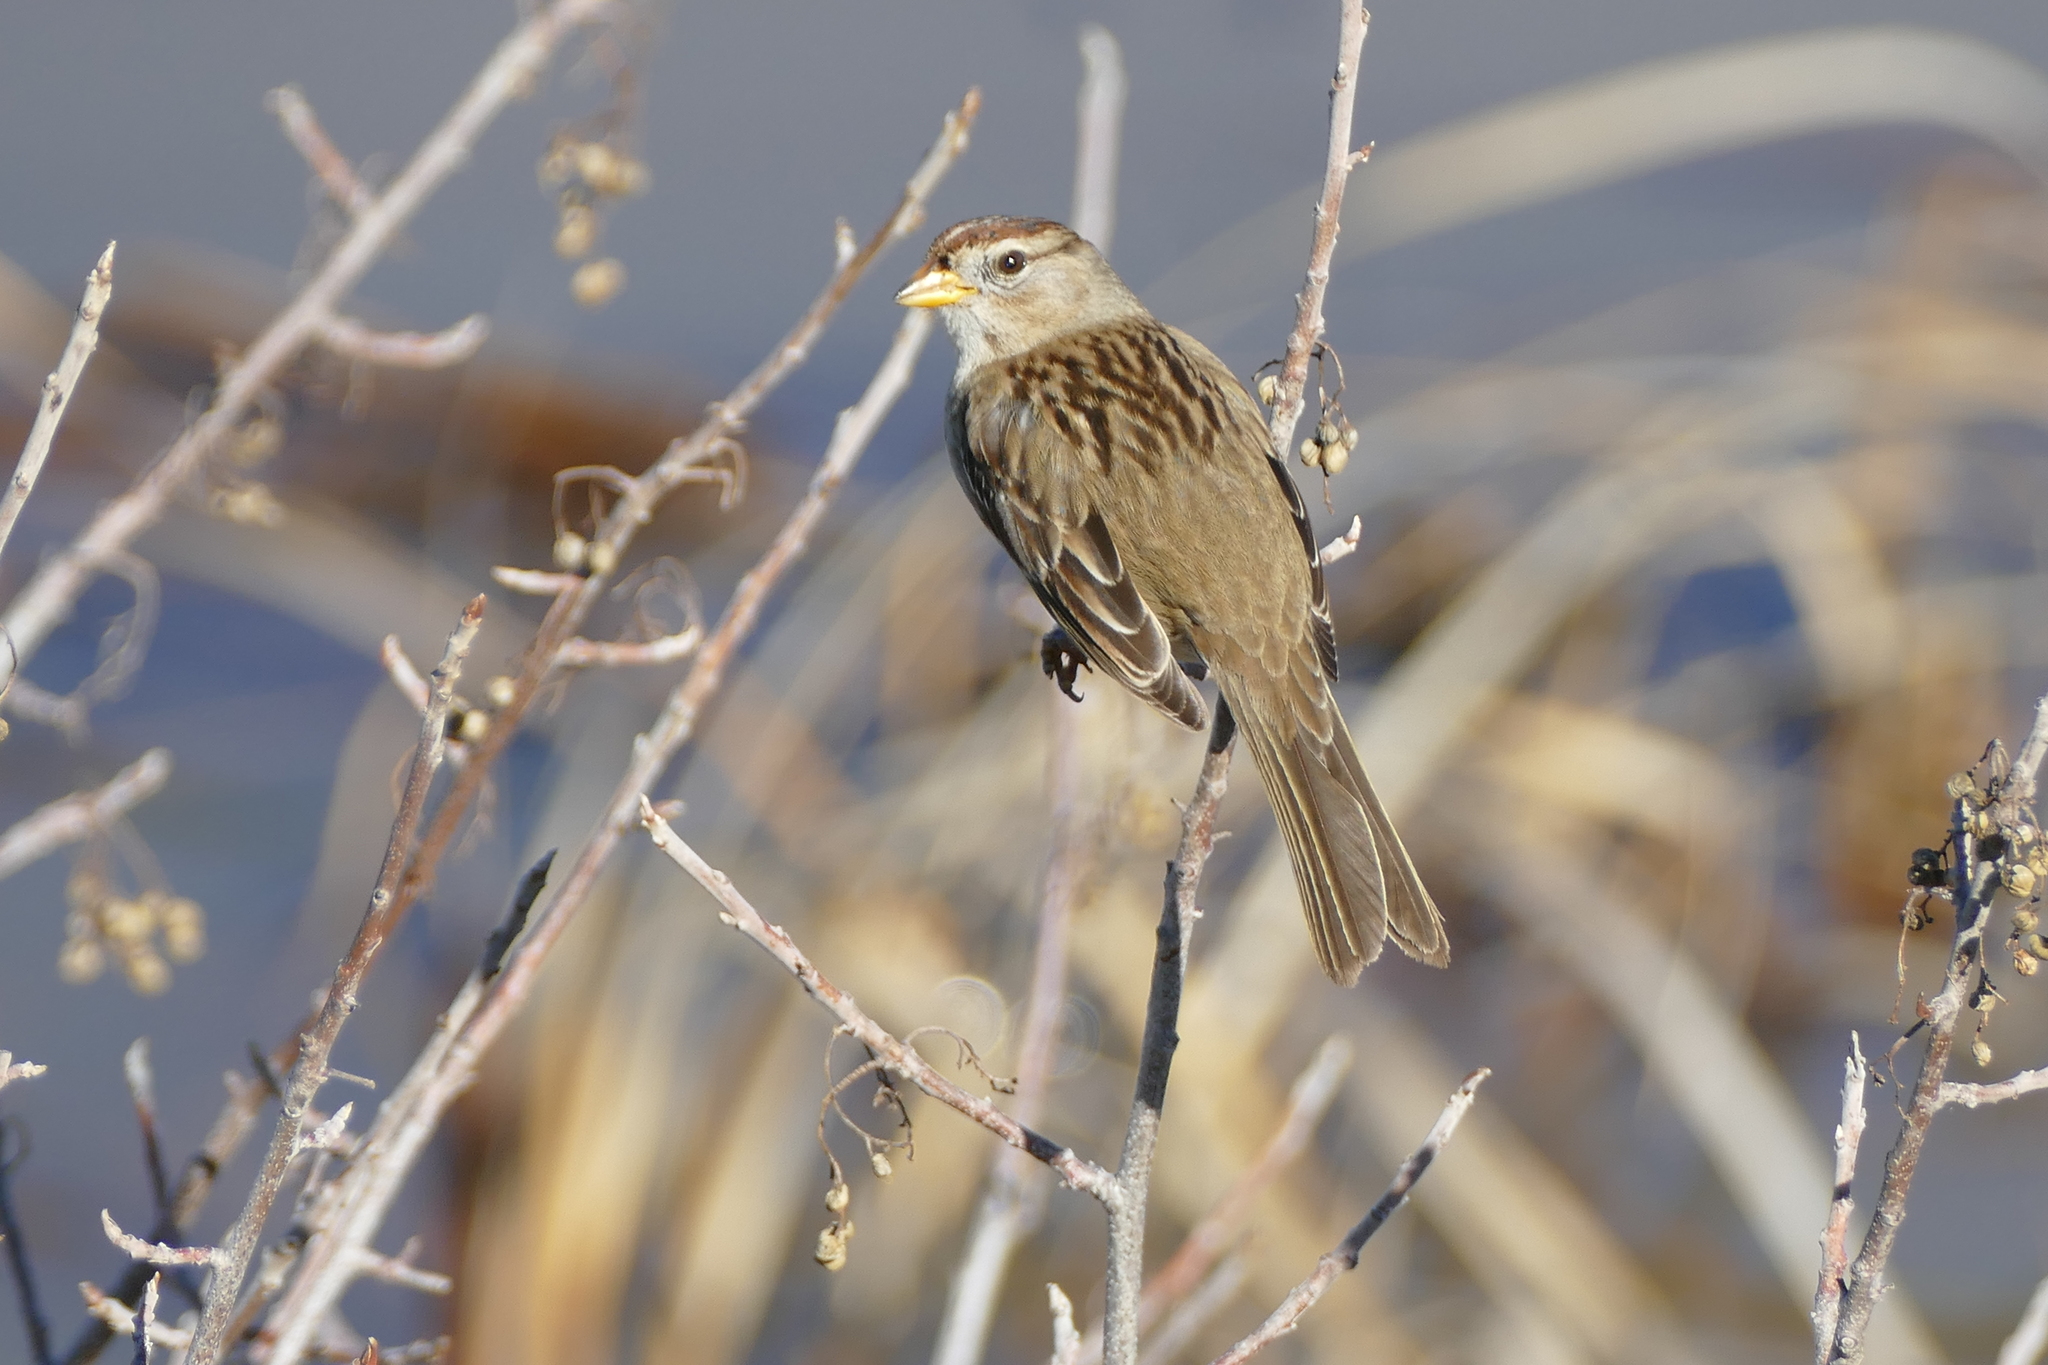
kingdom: Animalia
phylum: Chordata
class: Aves
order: Passeriformes
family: Passerellidae
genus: Zonotrichia
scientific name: Zonotrichia leucophrys
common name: White-crowned sparrow
